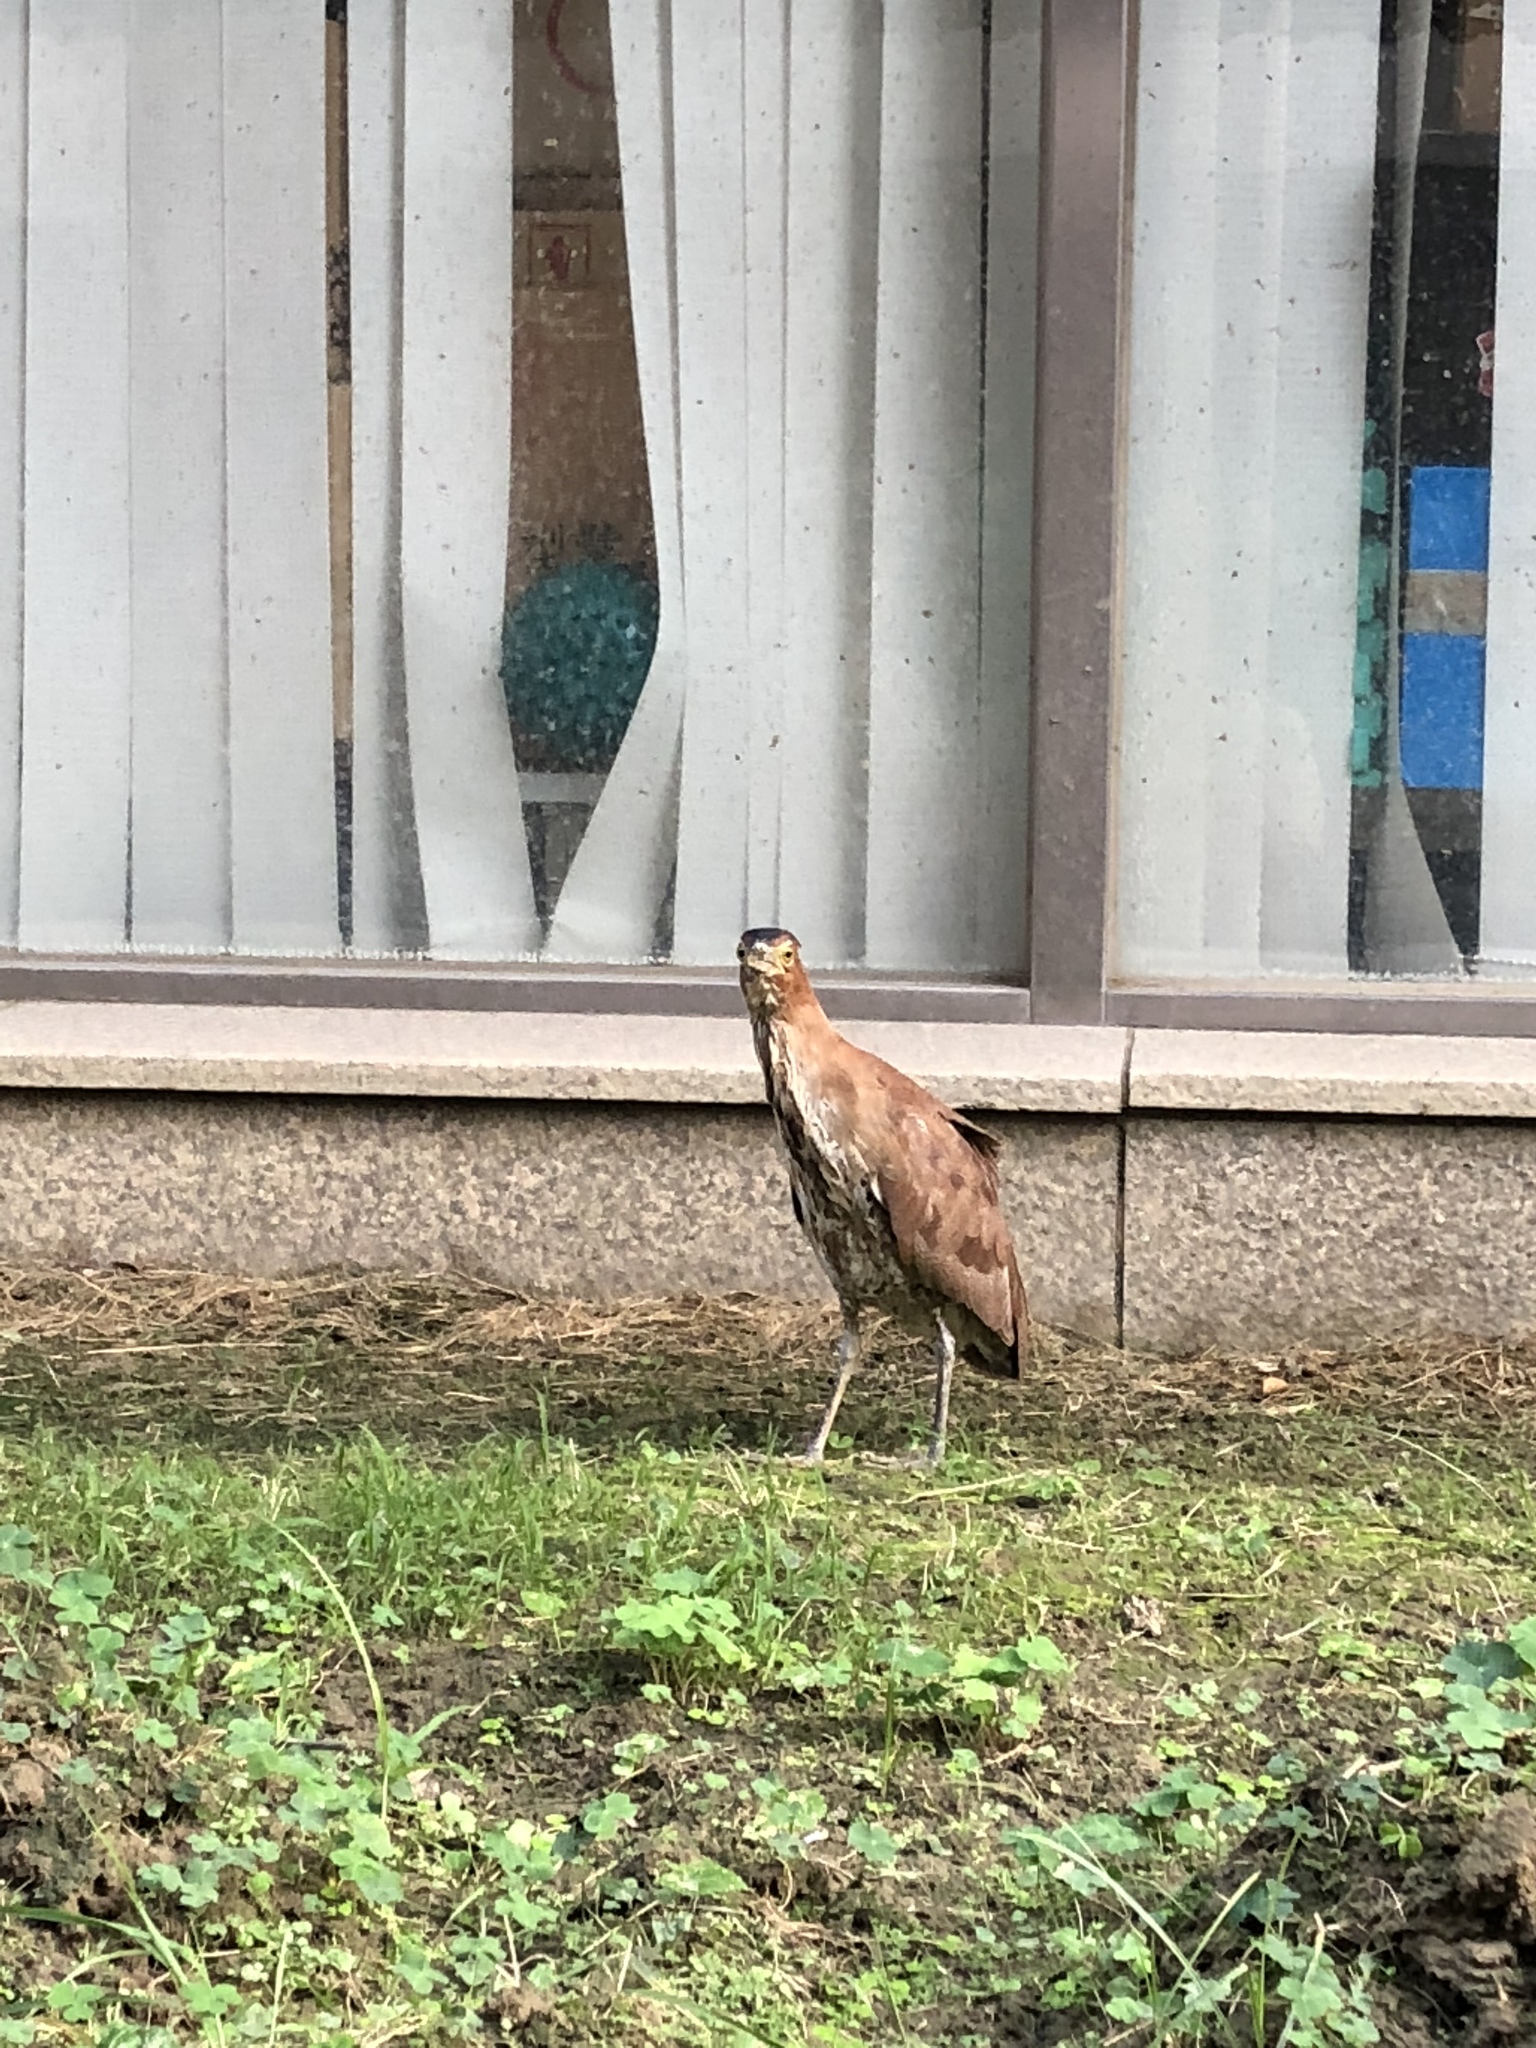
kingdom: Animalia
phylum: Chordata
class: Aves
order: Pelecaniformes
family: Ardeidae
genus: Gorsachius
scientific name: Gorsachius melanolophus
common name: Malayan night heron
